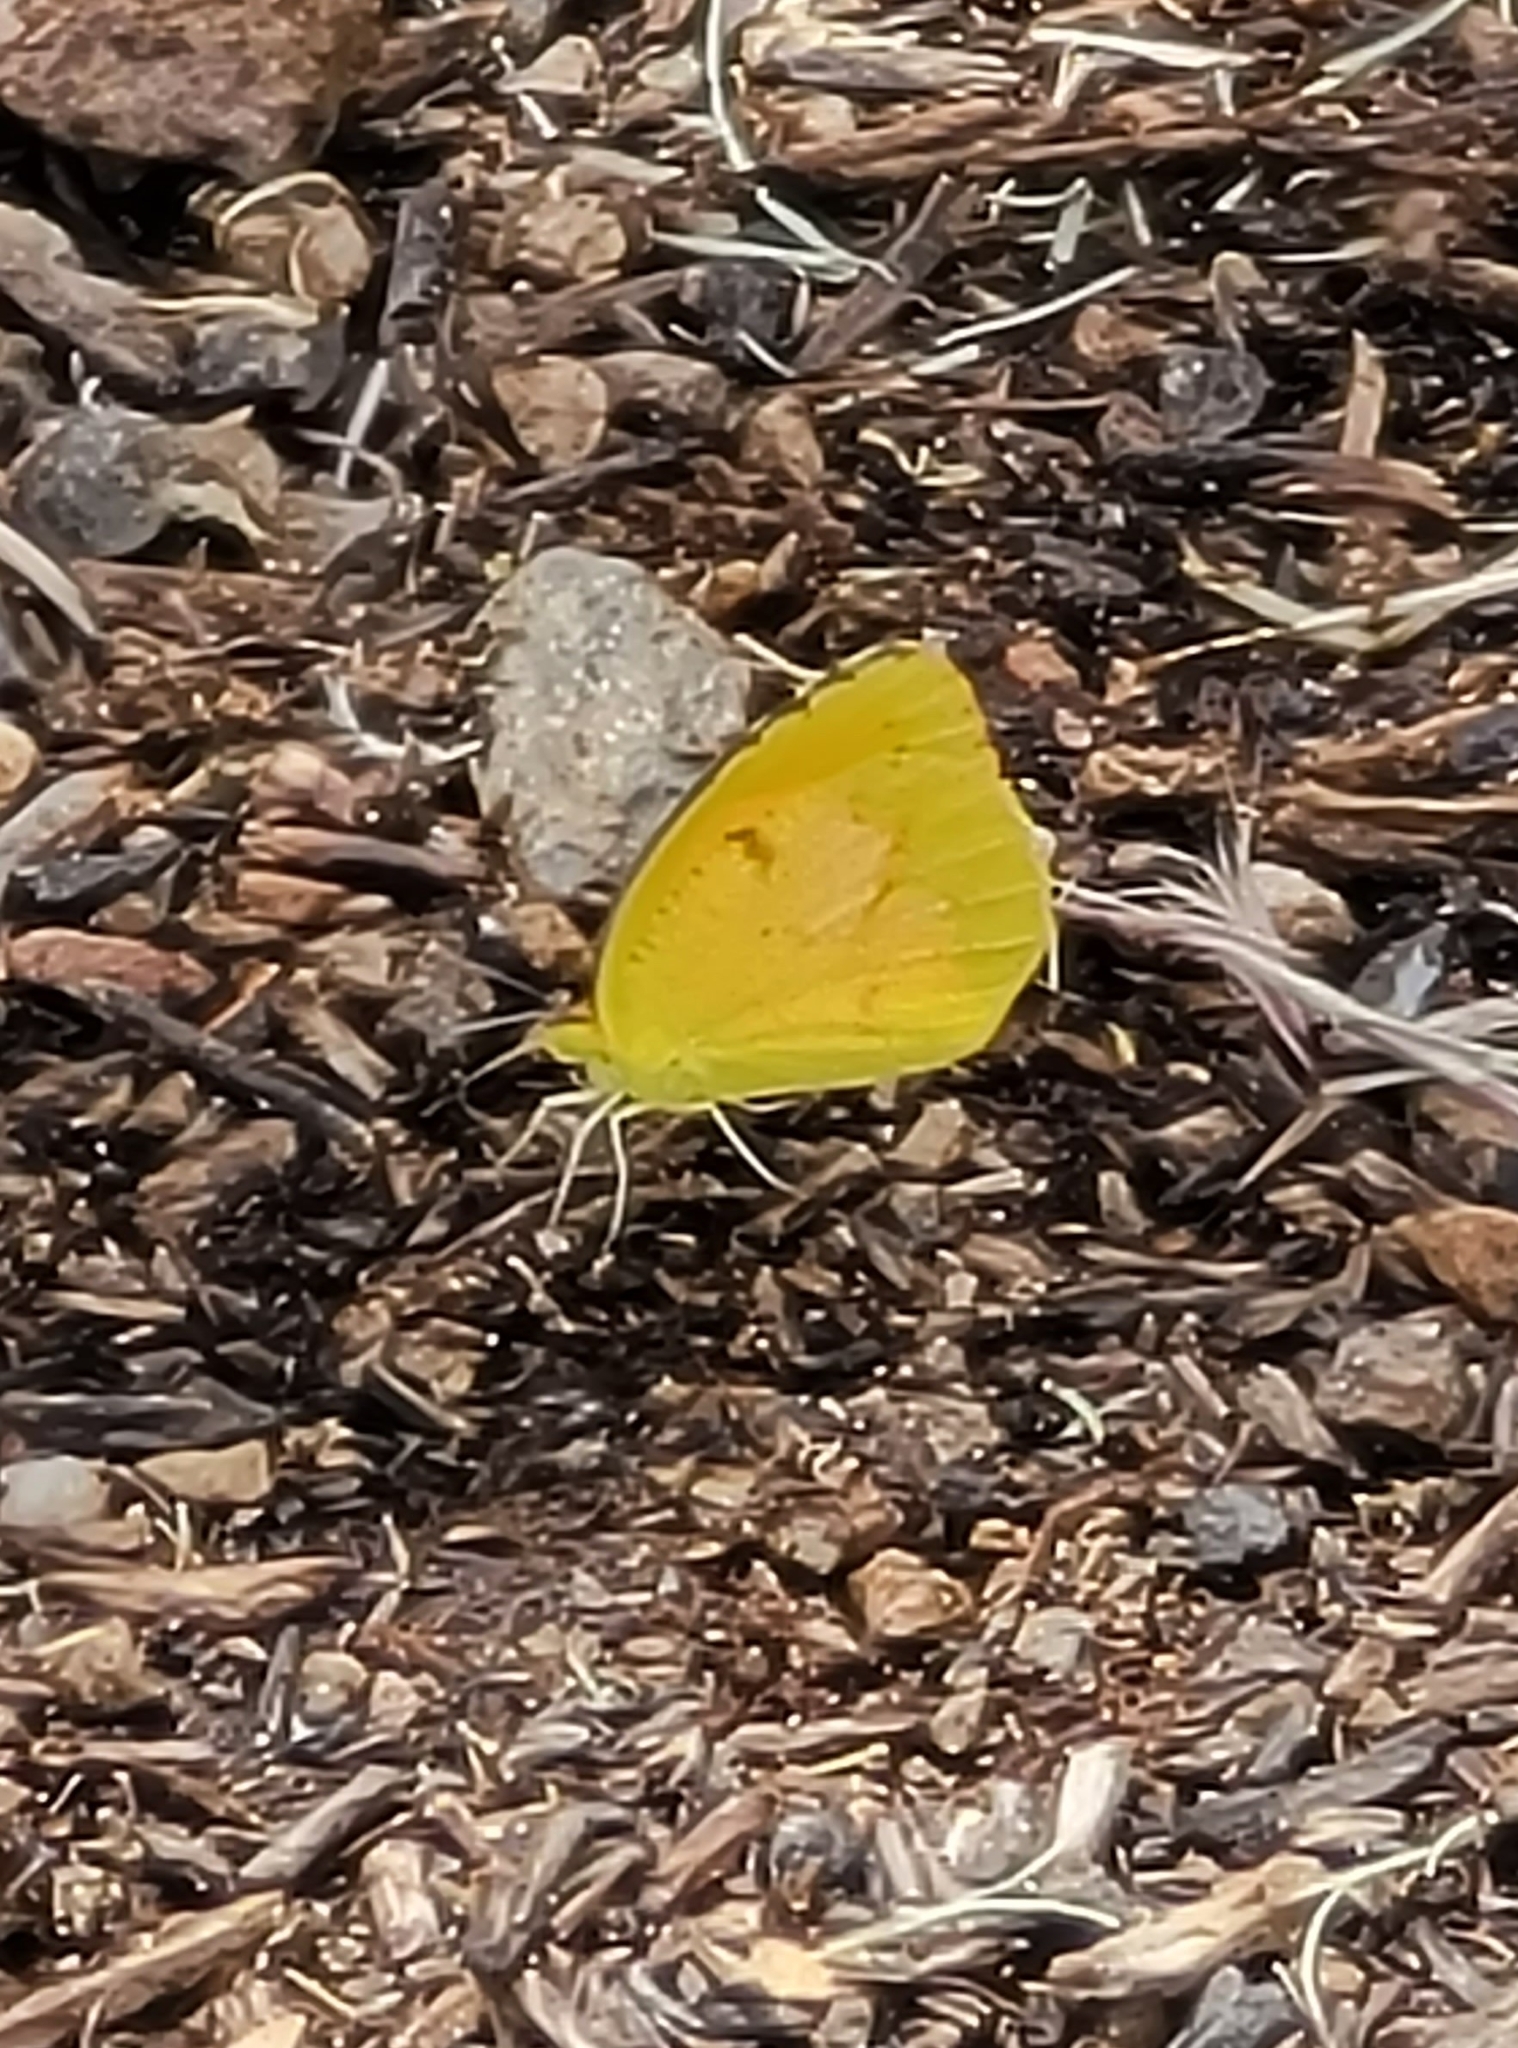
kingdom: Animalia
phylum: Arthropoda
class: Insecta
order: Lepidoptera
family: Pieridae
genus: Abaeis
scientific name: Abaeis nicippe
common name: Sleepy orange
